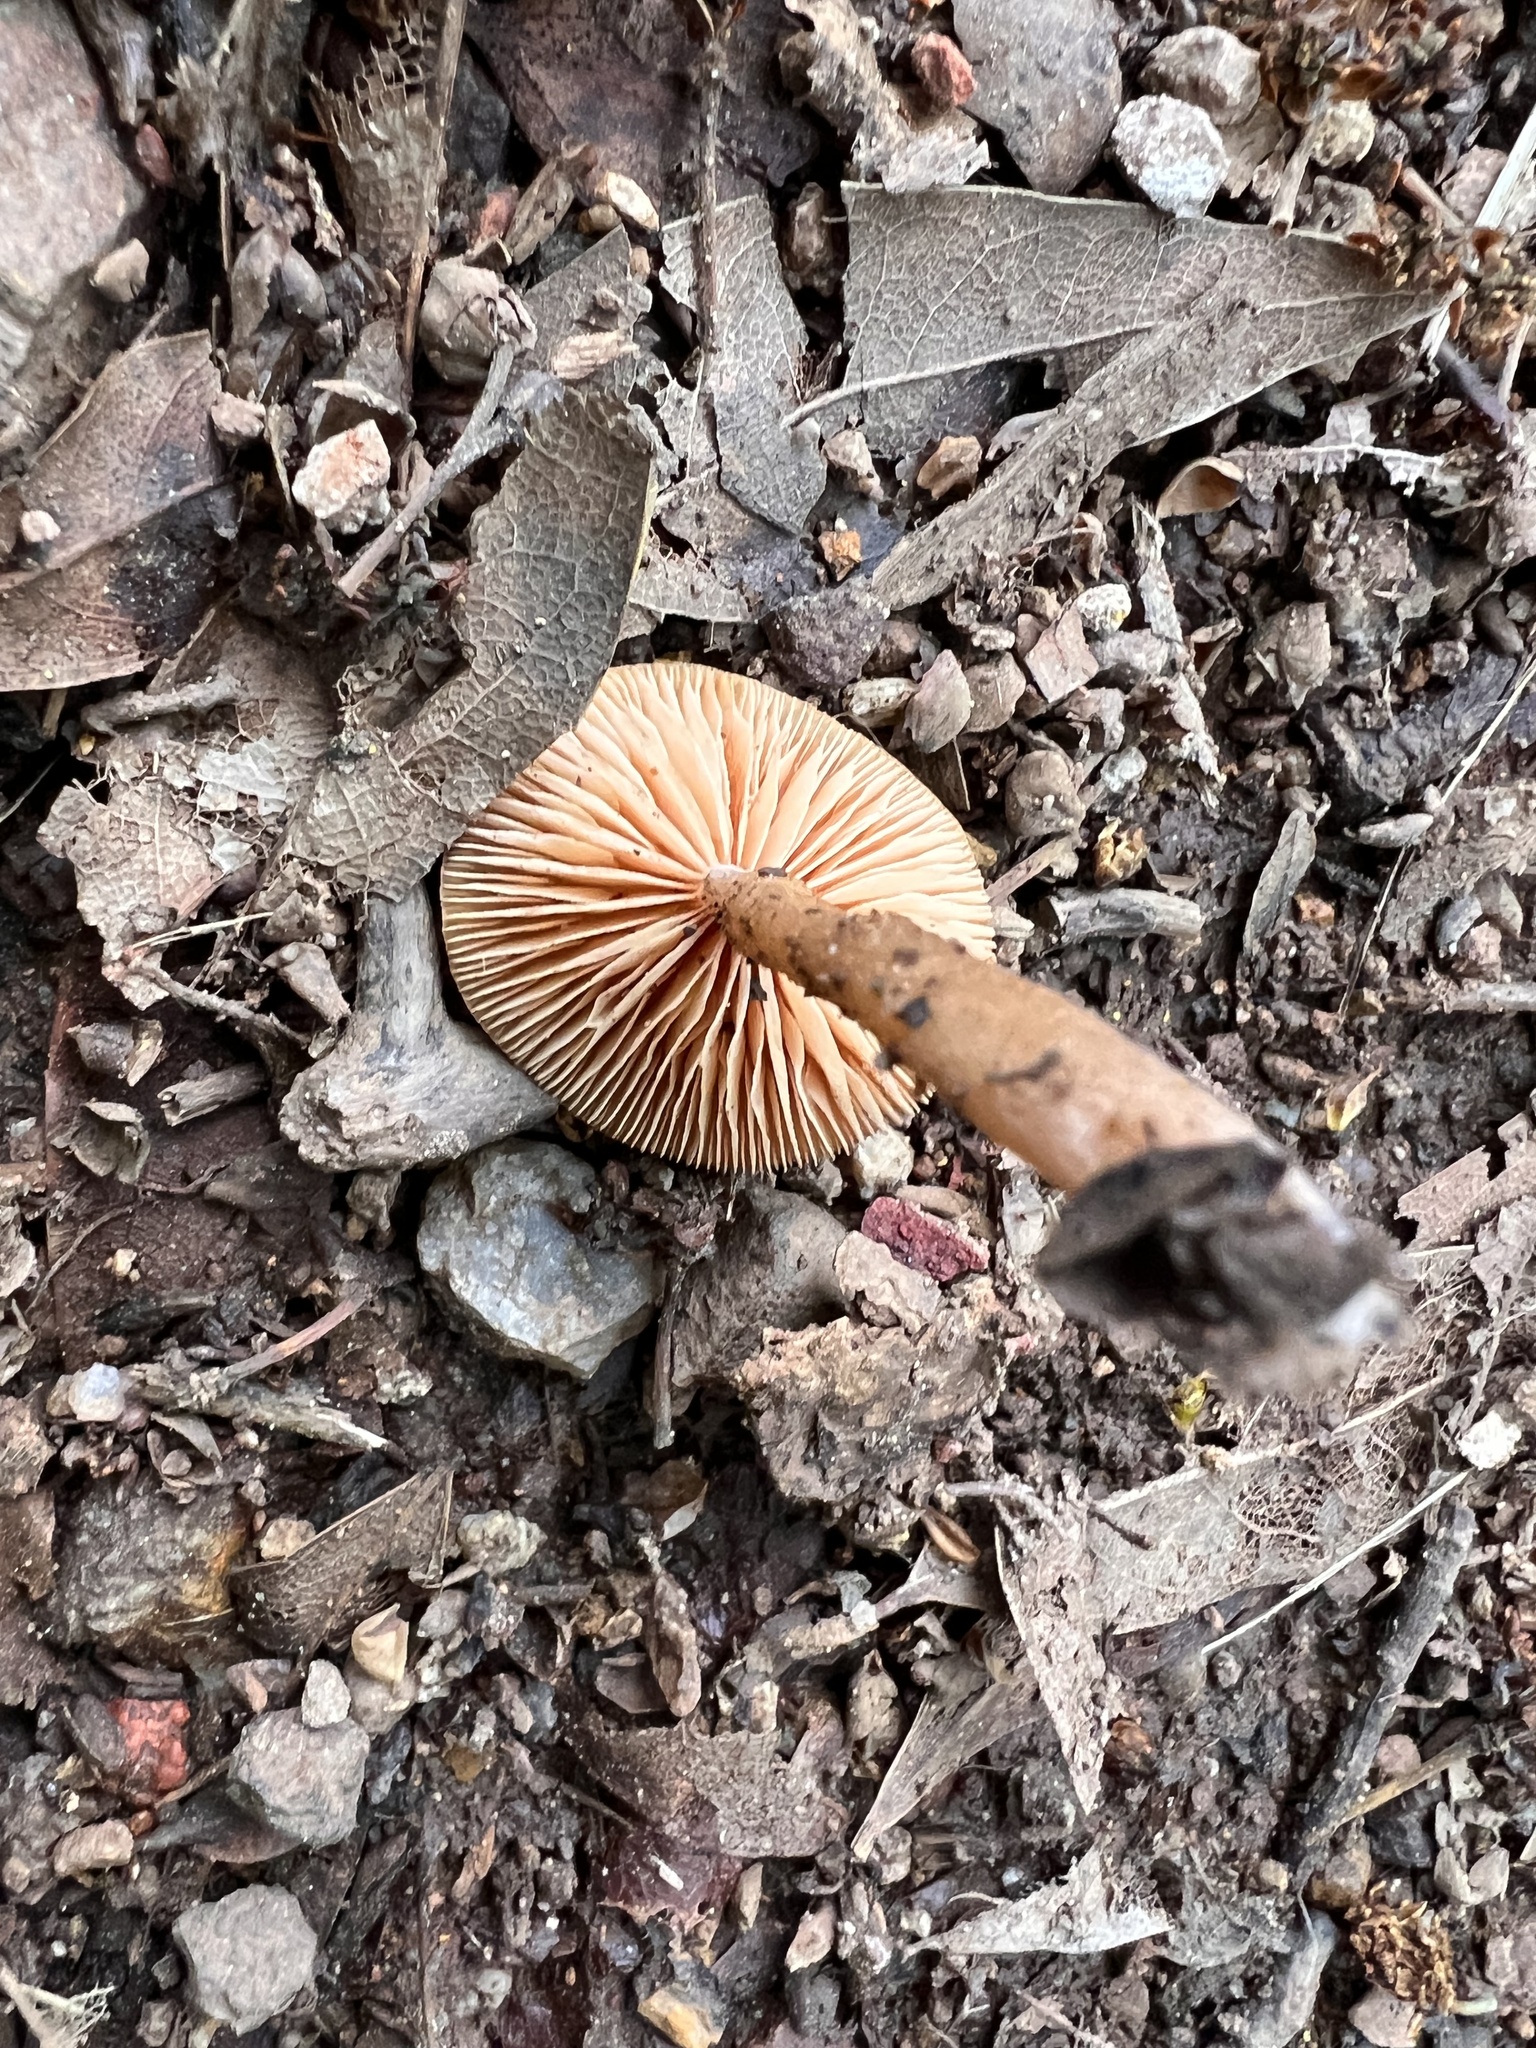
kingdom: Fungi
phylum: Basidiomycota
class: Agaricomycetes
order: Agaricales
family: Tubariaceae
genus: Tubaria
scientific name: Tubaria furfuracea
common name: Scurfy twiglet
